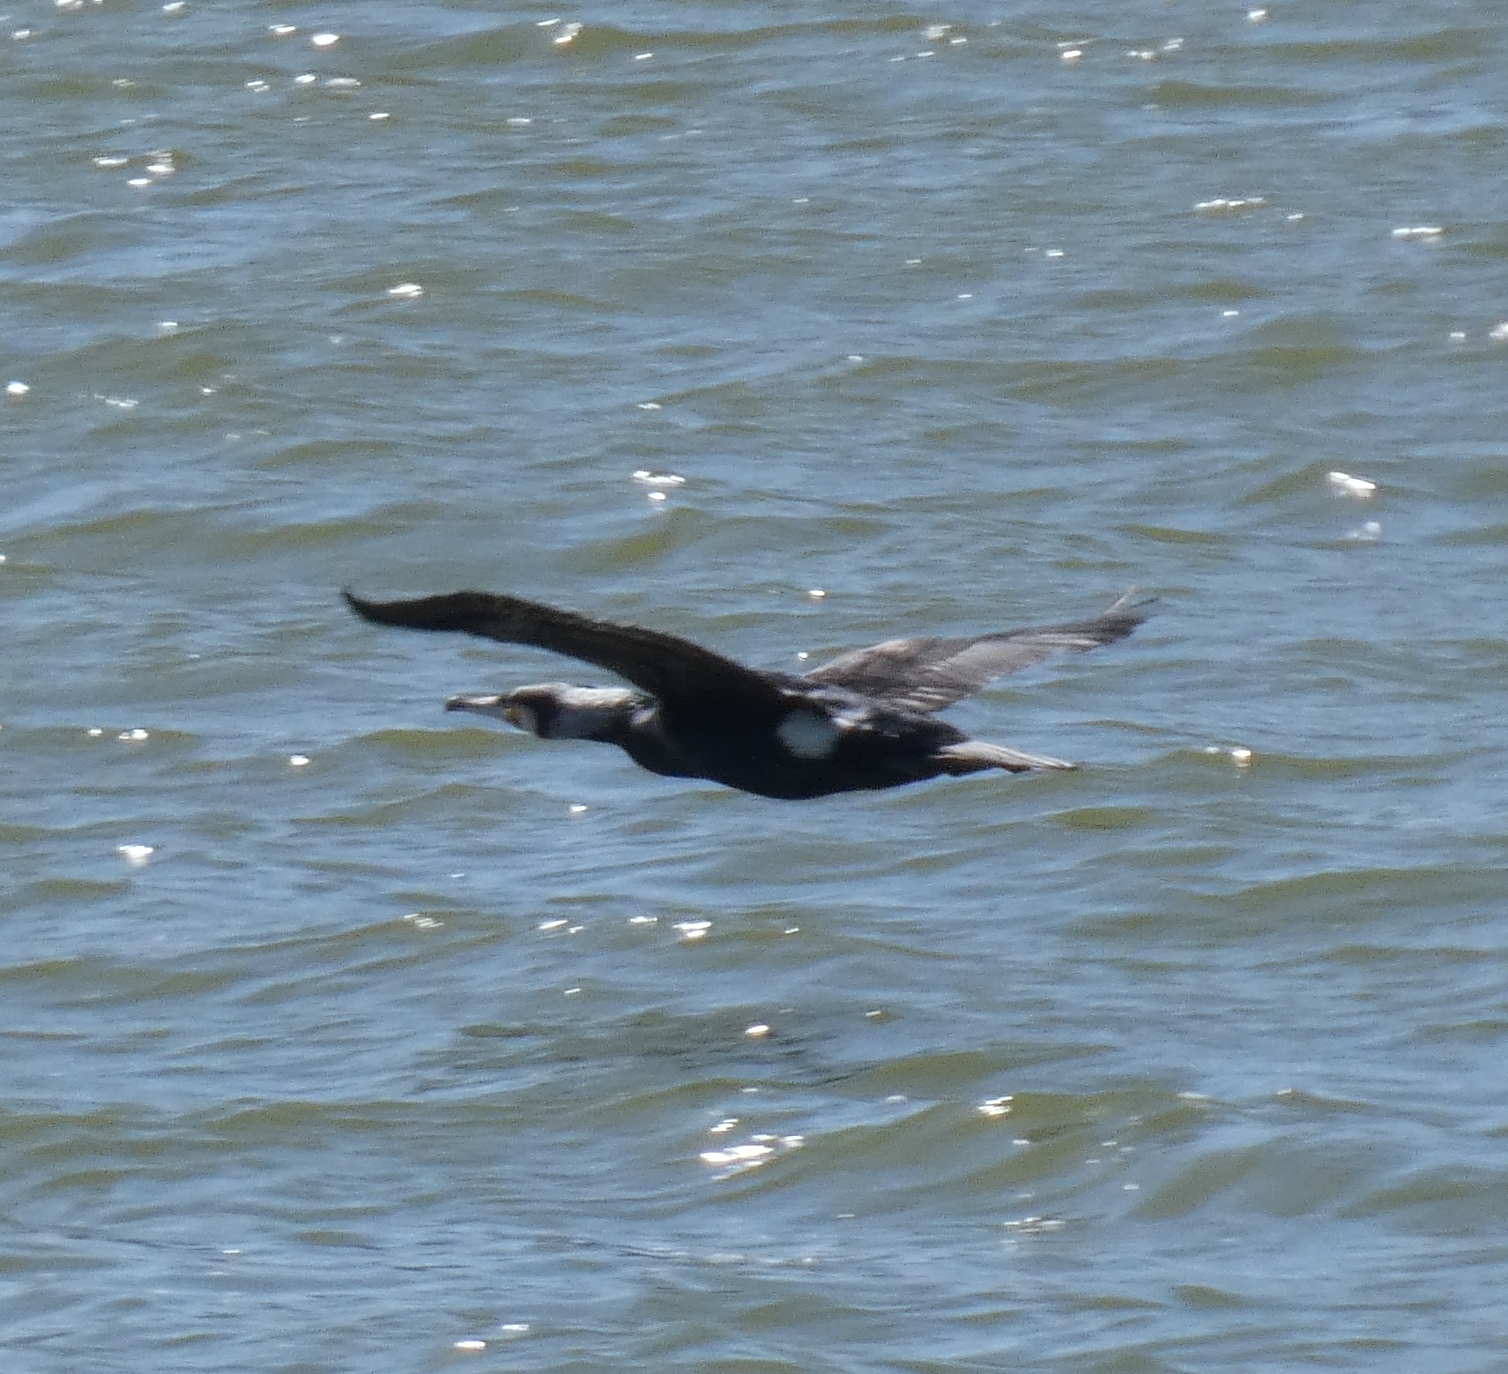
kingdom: Animalia
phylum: Chordata
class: Aves
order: Suliformes
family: Phalacrocoracidae
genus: Phalacrocorax
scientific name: Phalacrocorax carbo
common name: Great cormorant
